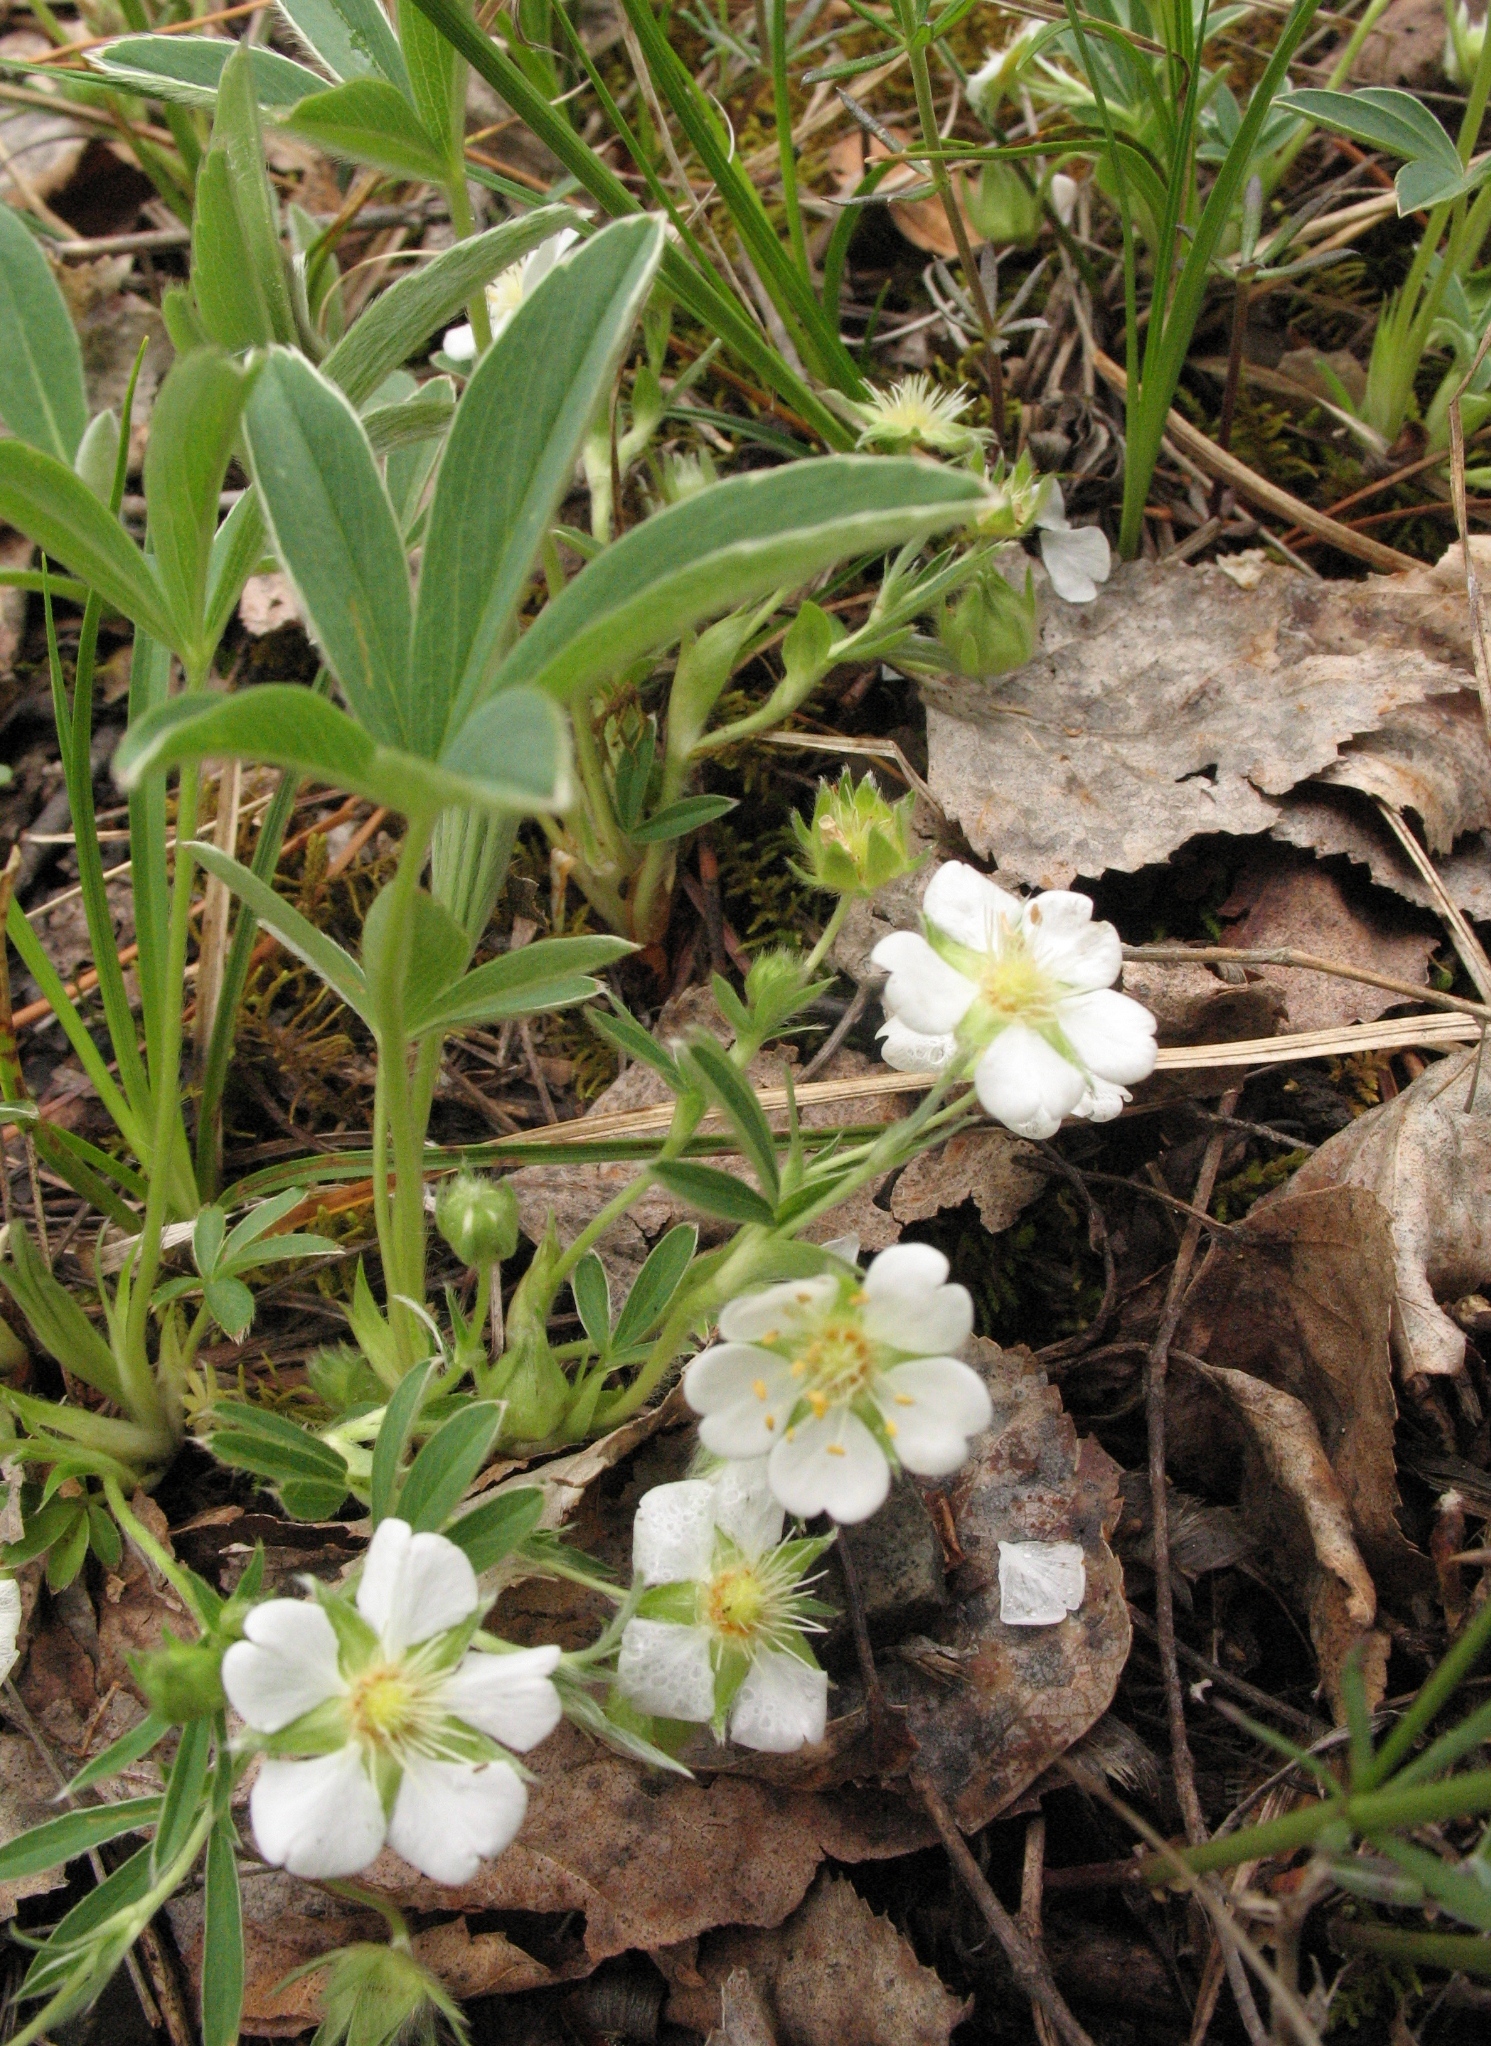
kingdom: Plantae
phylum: Tracheophyta
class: Magnoliopsida
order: Rosales
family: Rosaceae
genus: Potentilla
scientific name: Potentilla alba
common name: White cinquefoil
